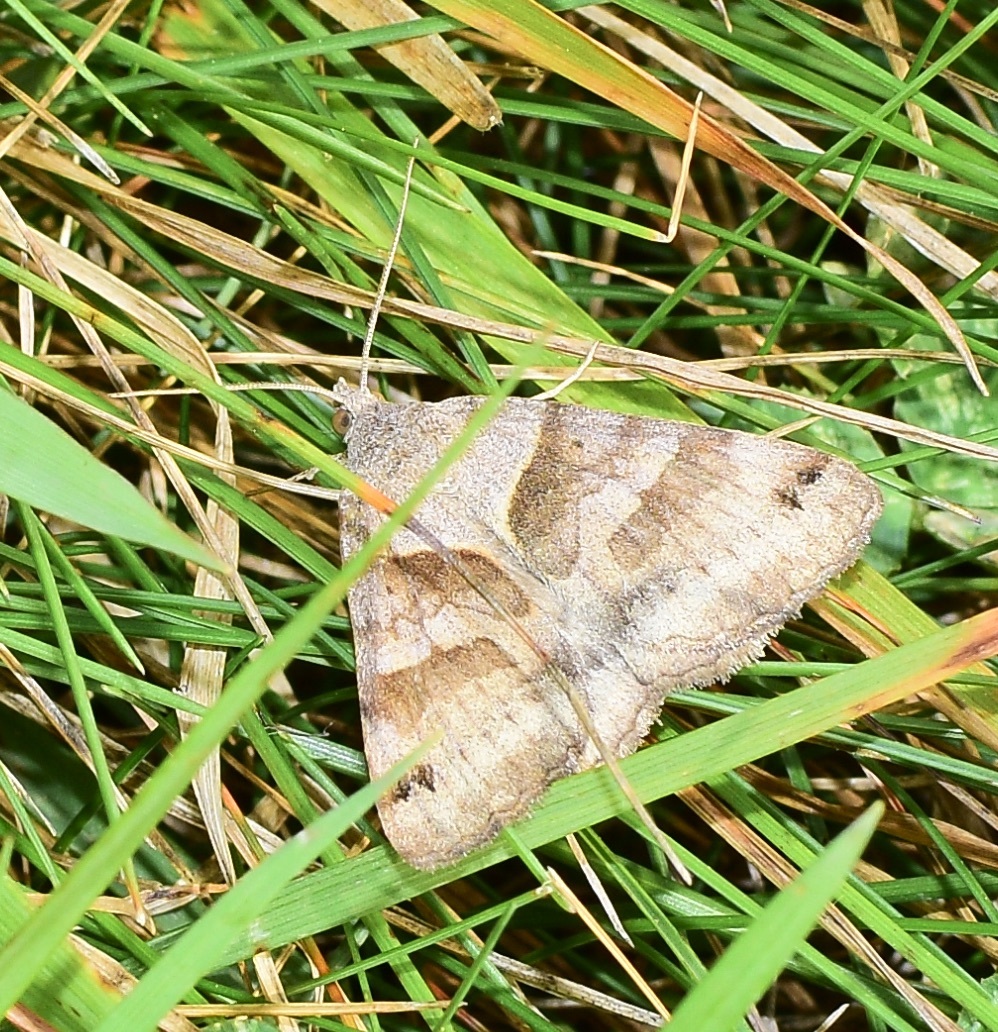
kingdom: Animalia
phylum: Arthropoda
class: Insecta
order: Lepidoptera
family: Erebidae
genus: Caenurgina
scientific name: Caenurgina crassiuscula
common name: Double-barred
